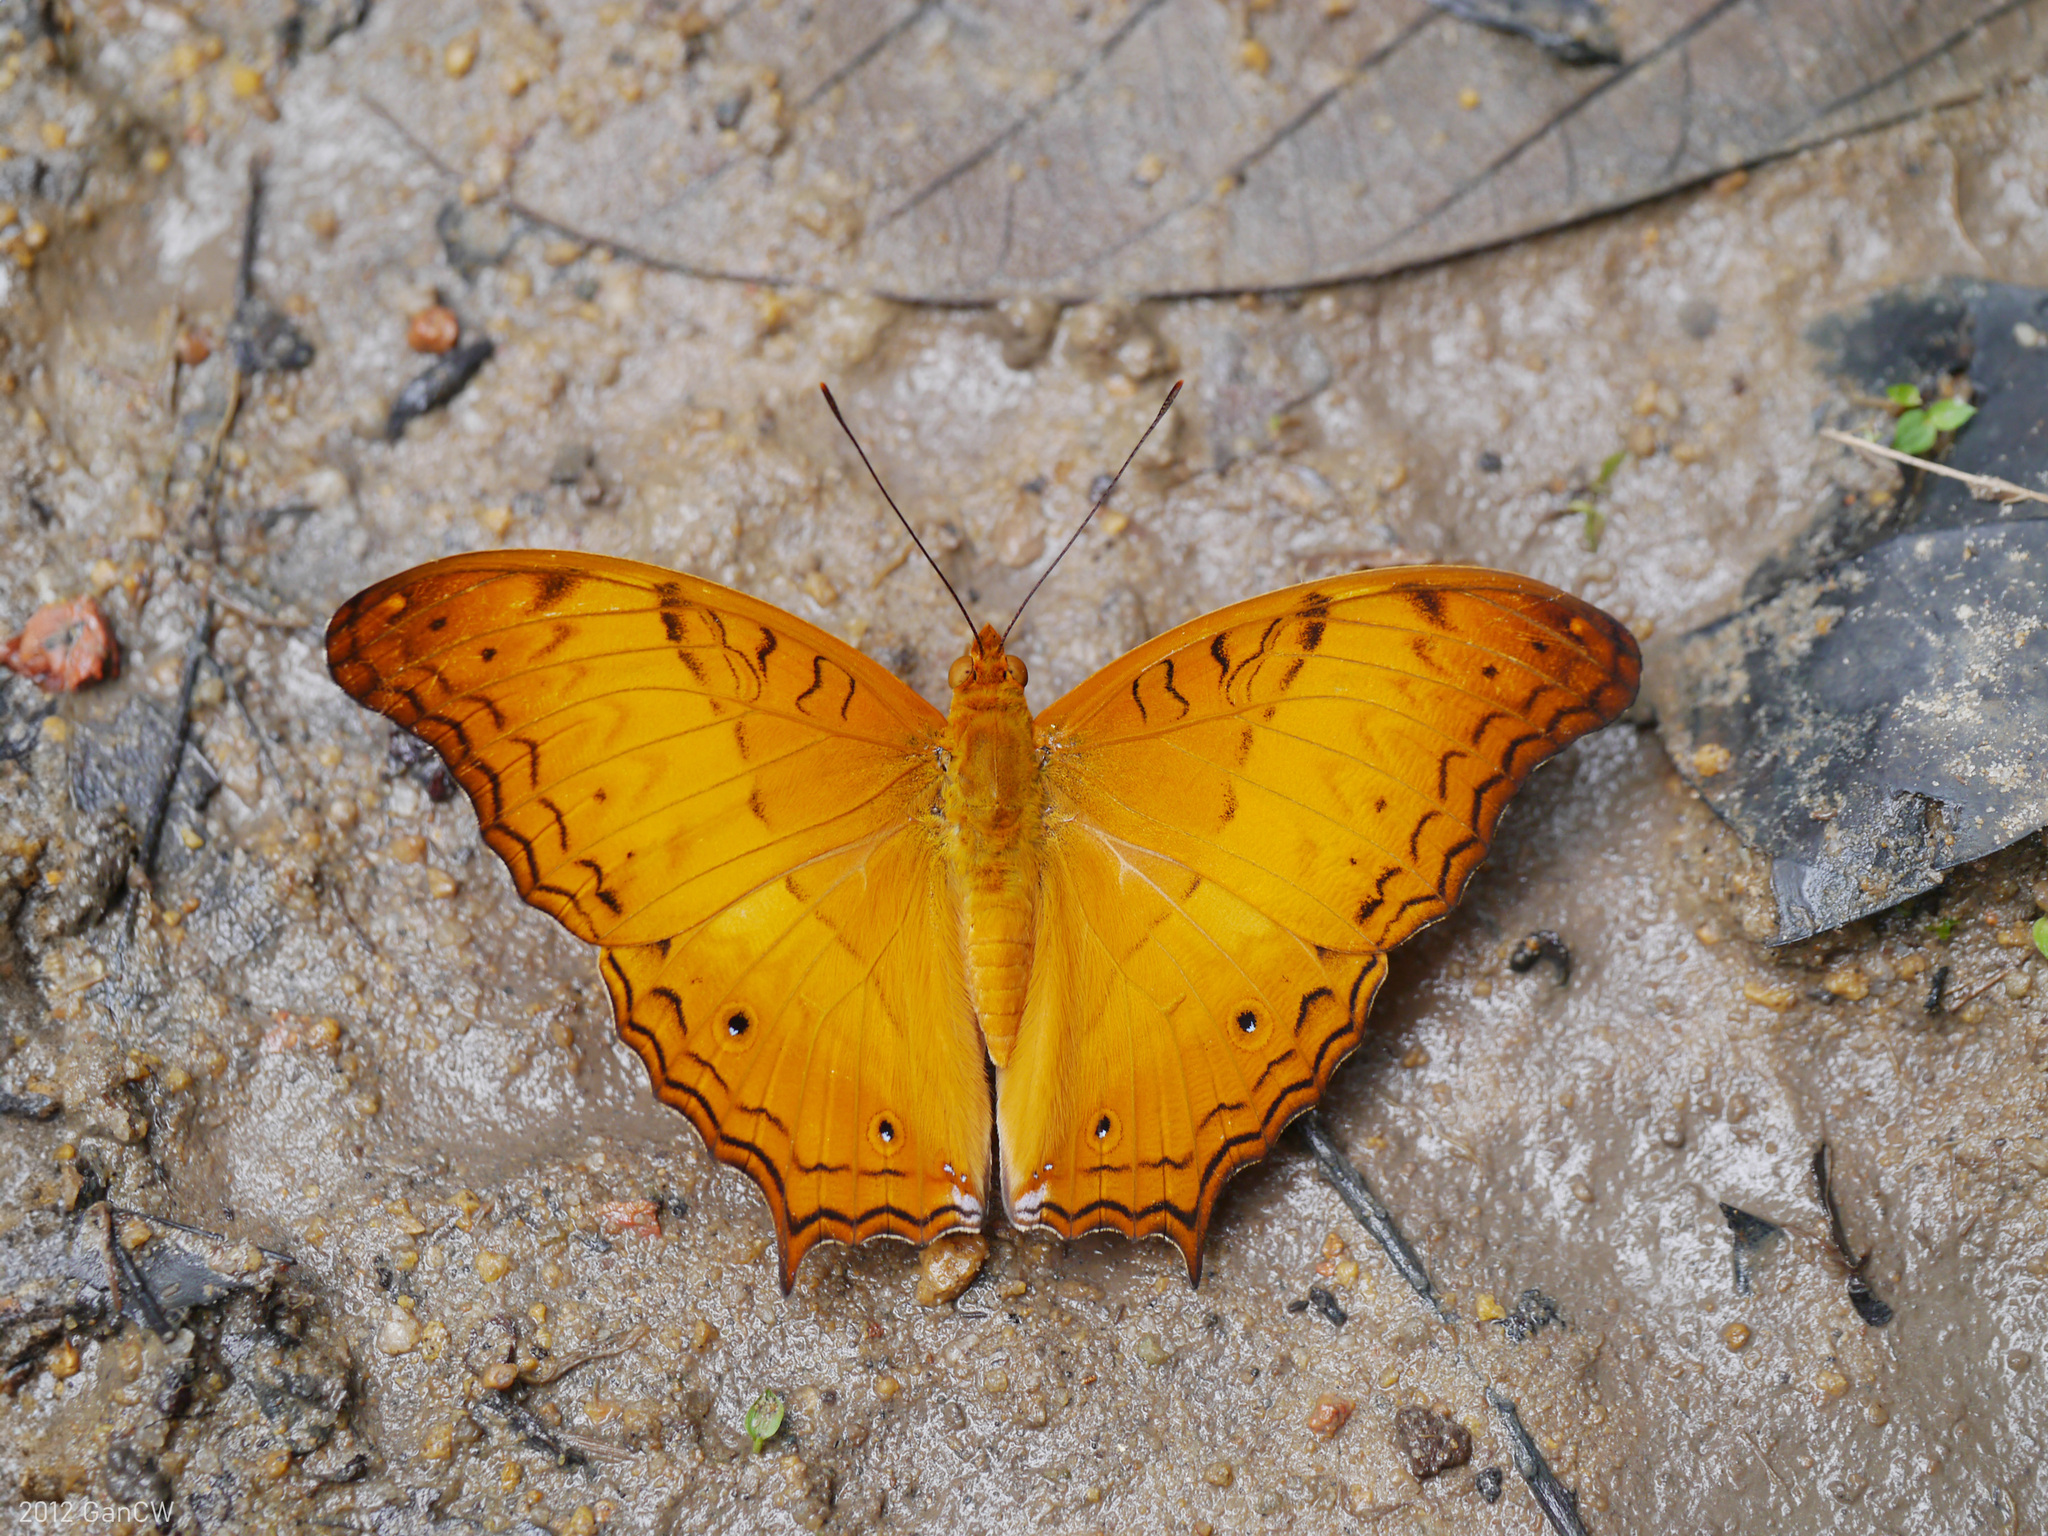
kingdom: Animalia
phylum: Arthropoda
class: Insecta
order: Lepidoptera
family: Nymphalidae
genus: Vindula
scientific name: Vindula deione
